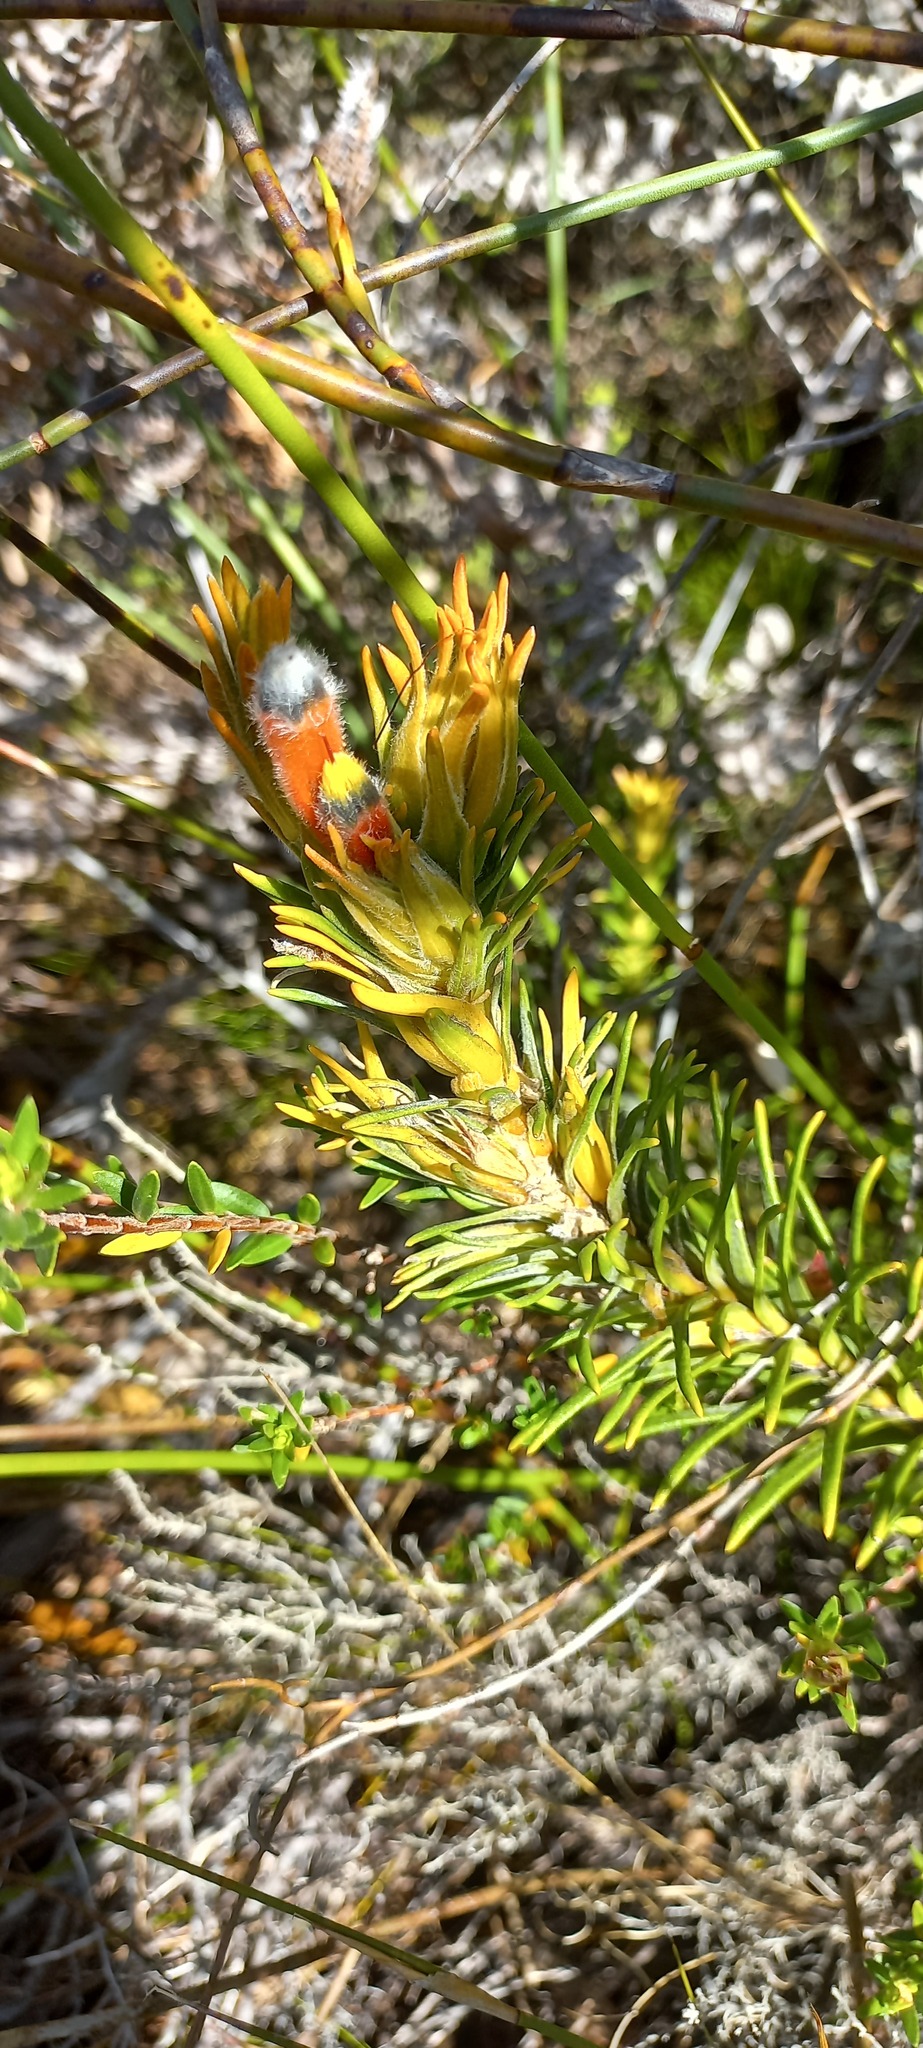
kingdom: Plantae
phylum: Tracheophyta
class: Magnoliopsida
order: Lamiales
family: Stilbaceae
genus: Retzia
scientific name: Retzia capensis
